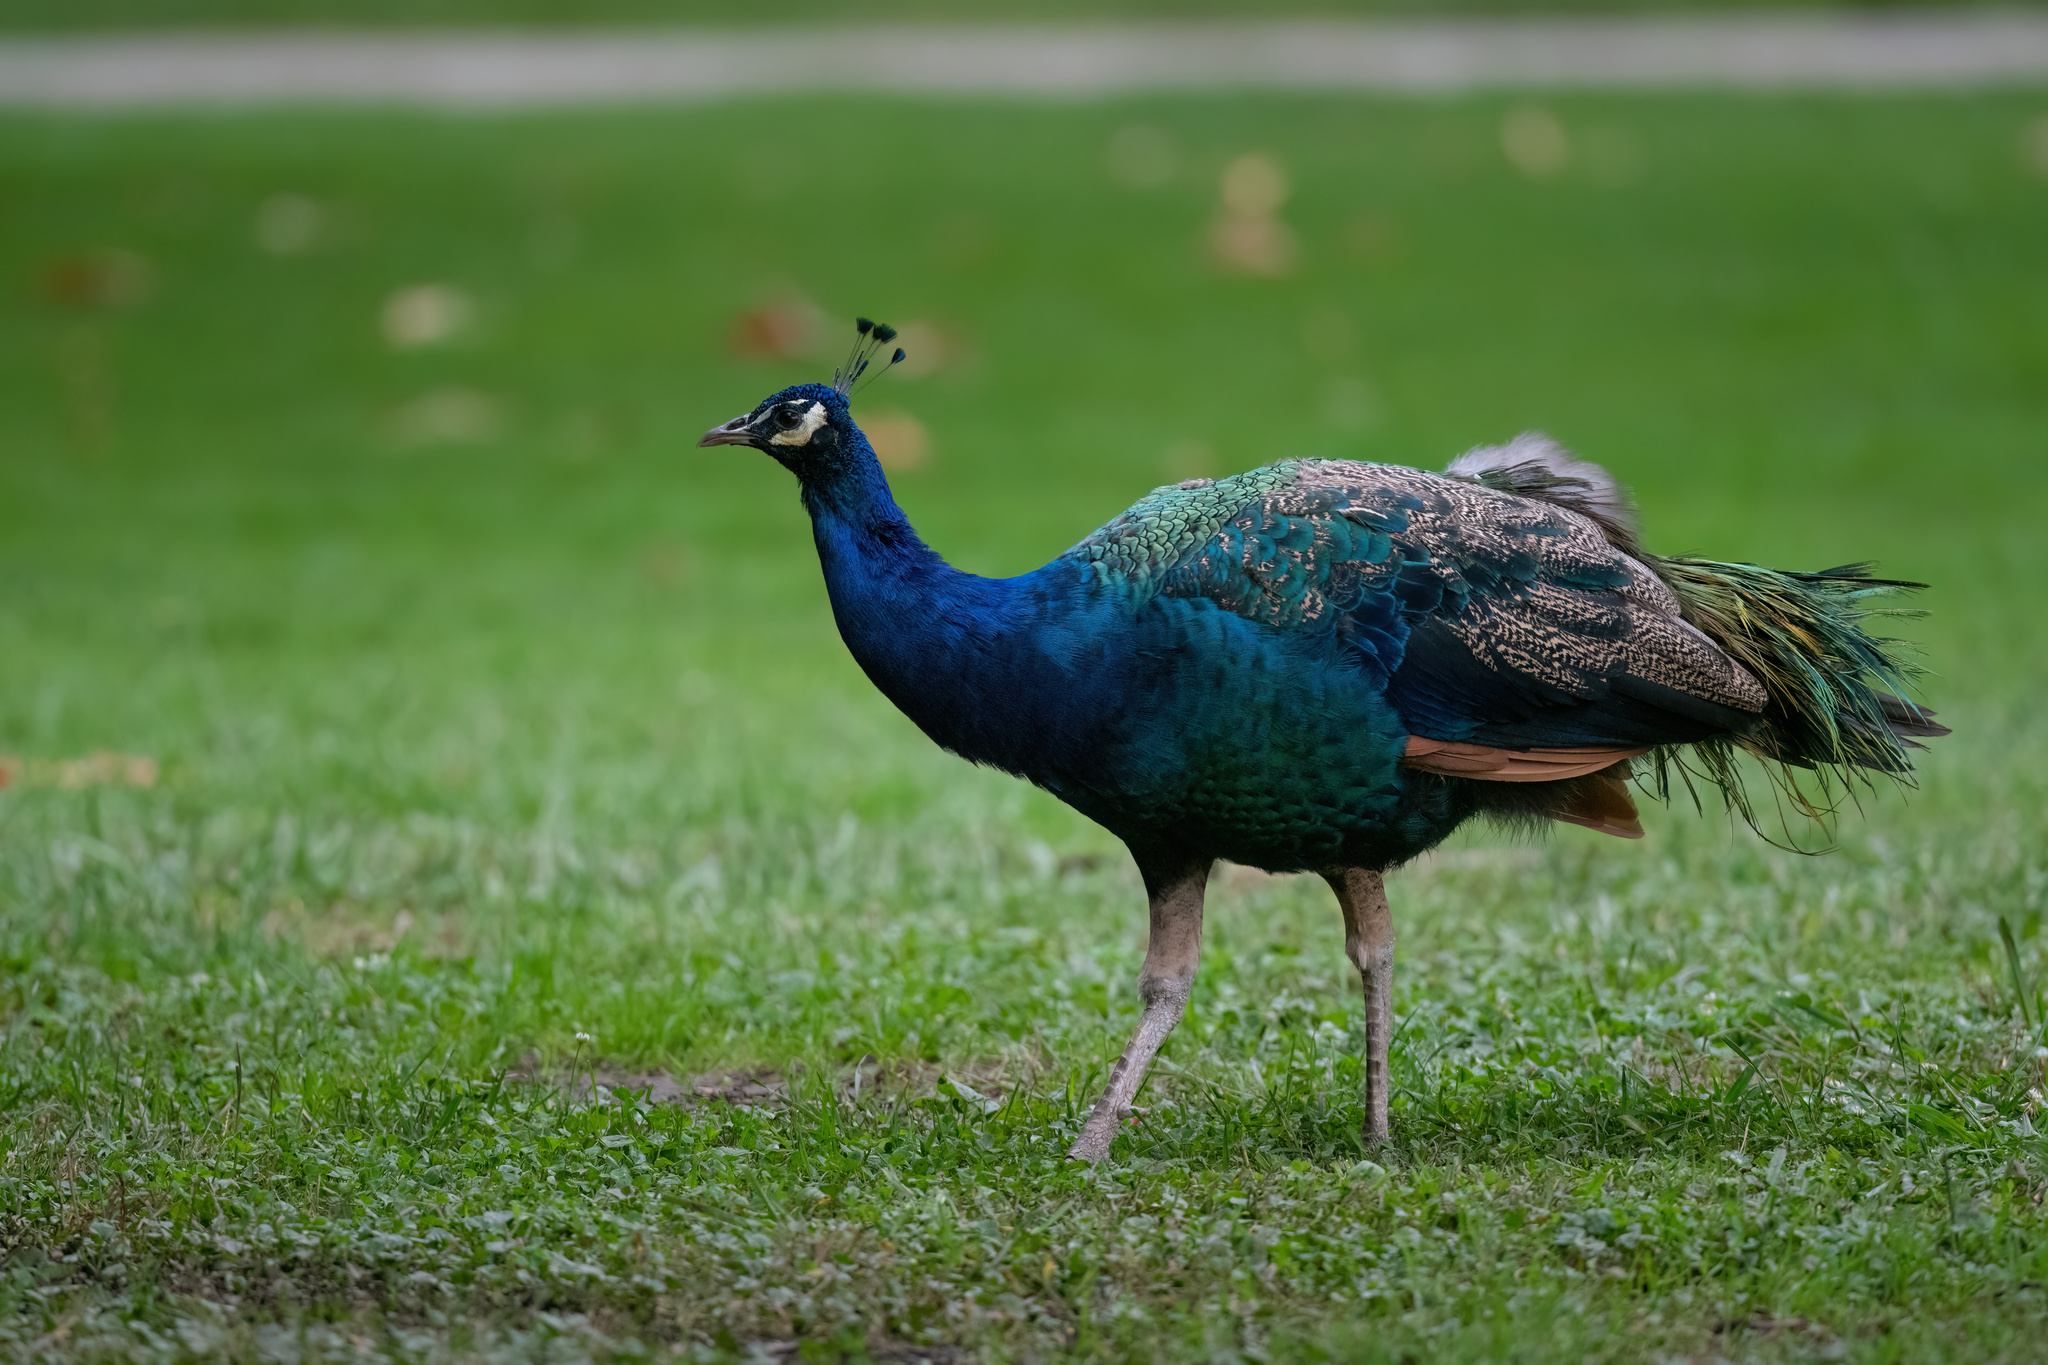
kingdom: Animalia
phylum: Chordata
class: Aves
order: Galliformes
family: Phasianidae
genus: Pavo
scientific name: Pavo cristatus
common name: Indian peafowl
